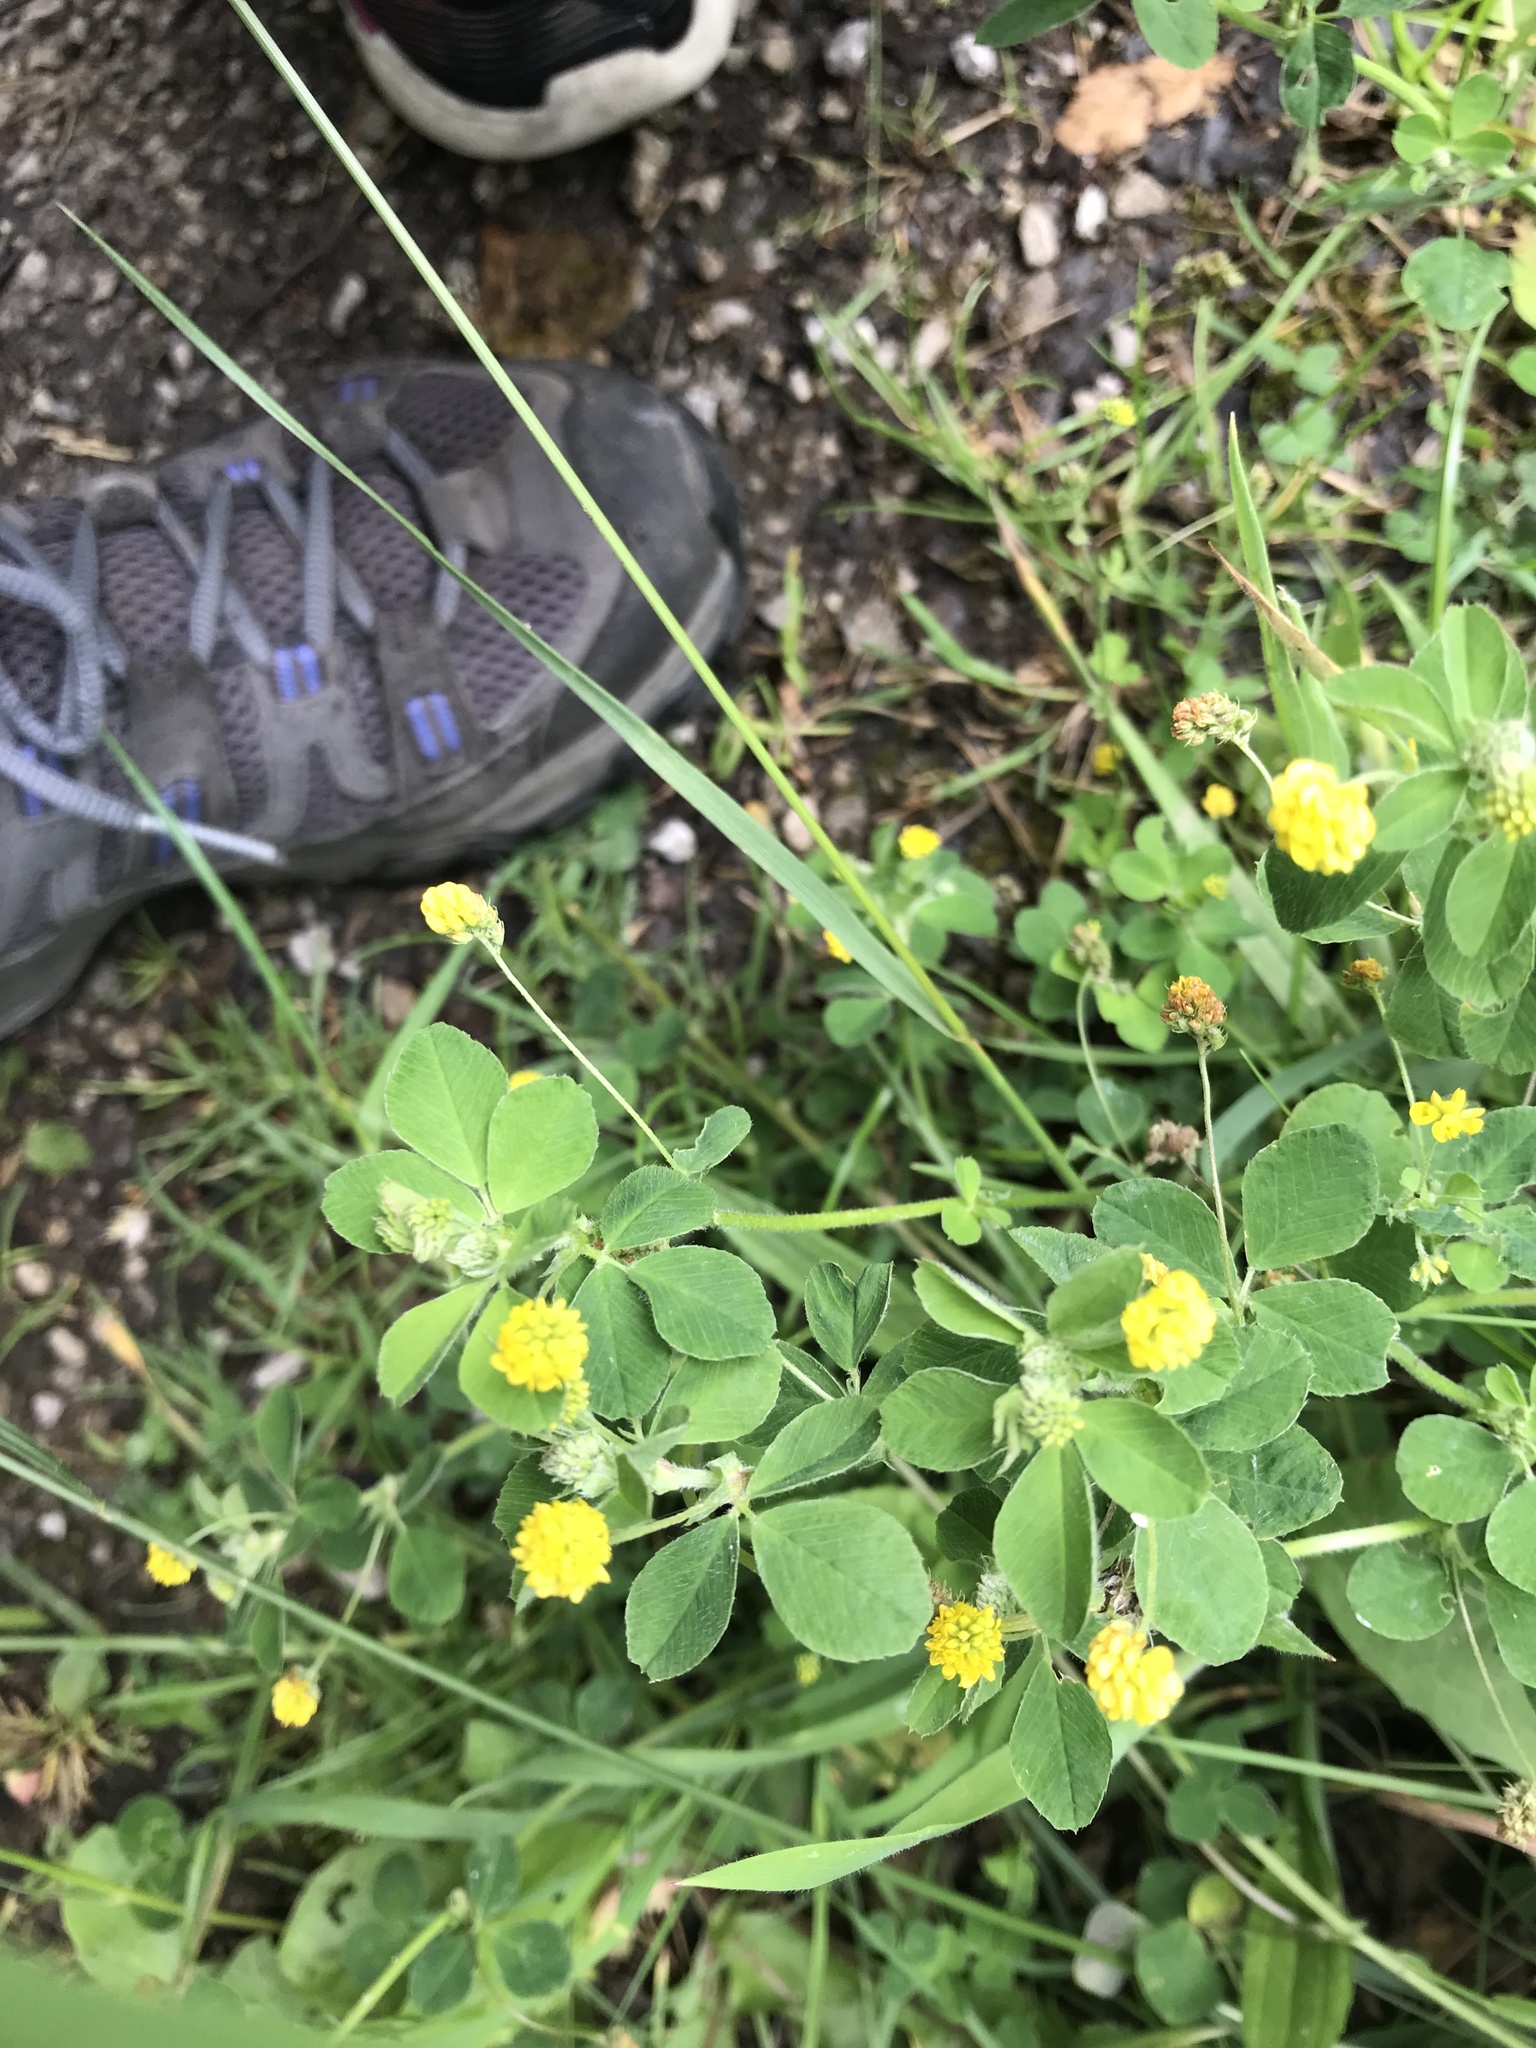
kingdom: Plantae
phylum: Tracheophyta
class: Magnoliopsida
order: Fabales
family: Fabaceae
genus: Medicago
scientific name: Medicago lupulina
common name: Black medick
